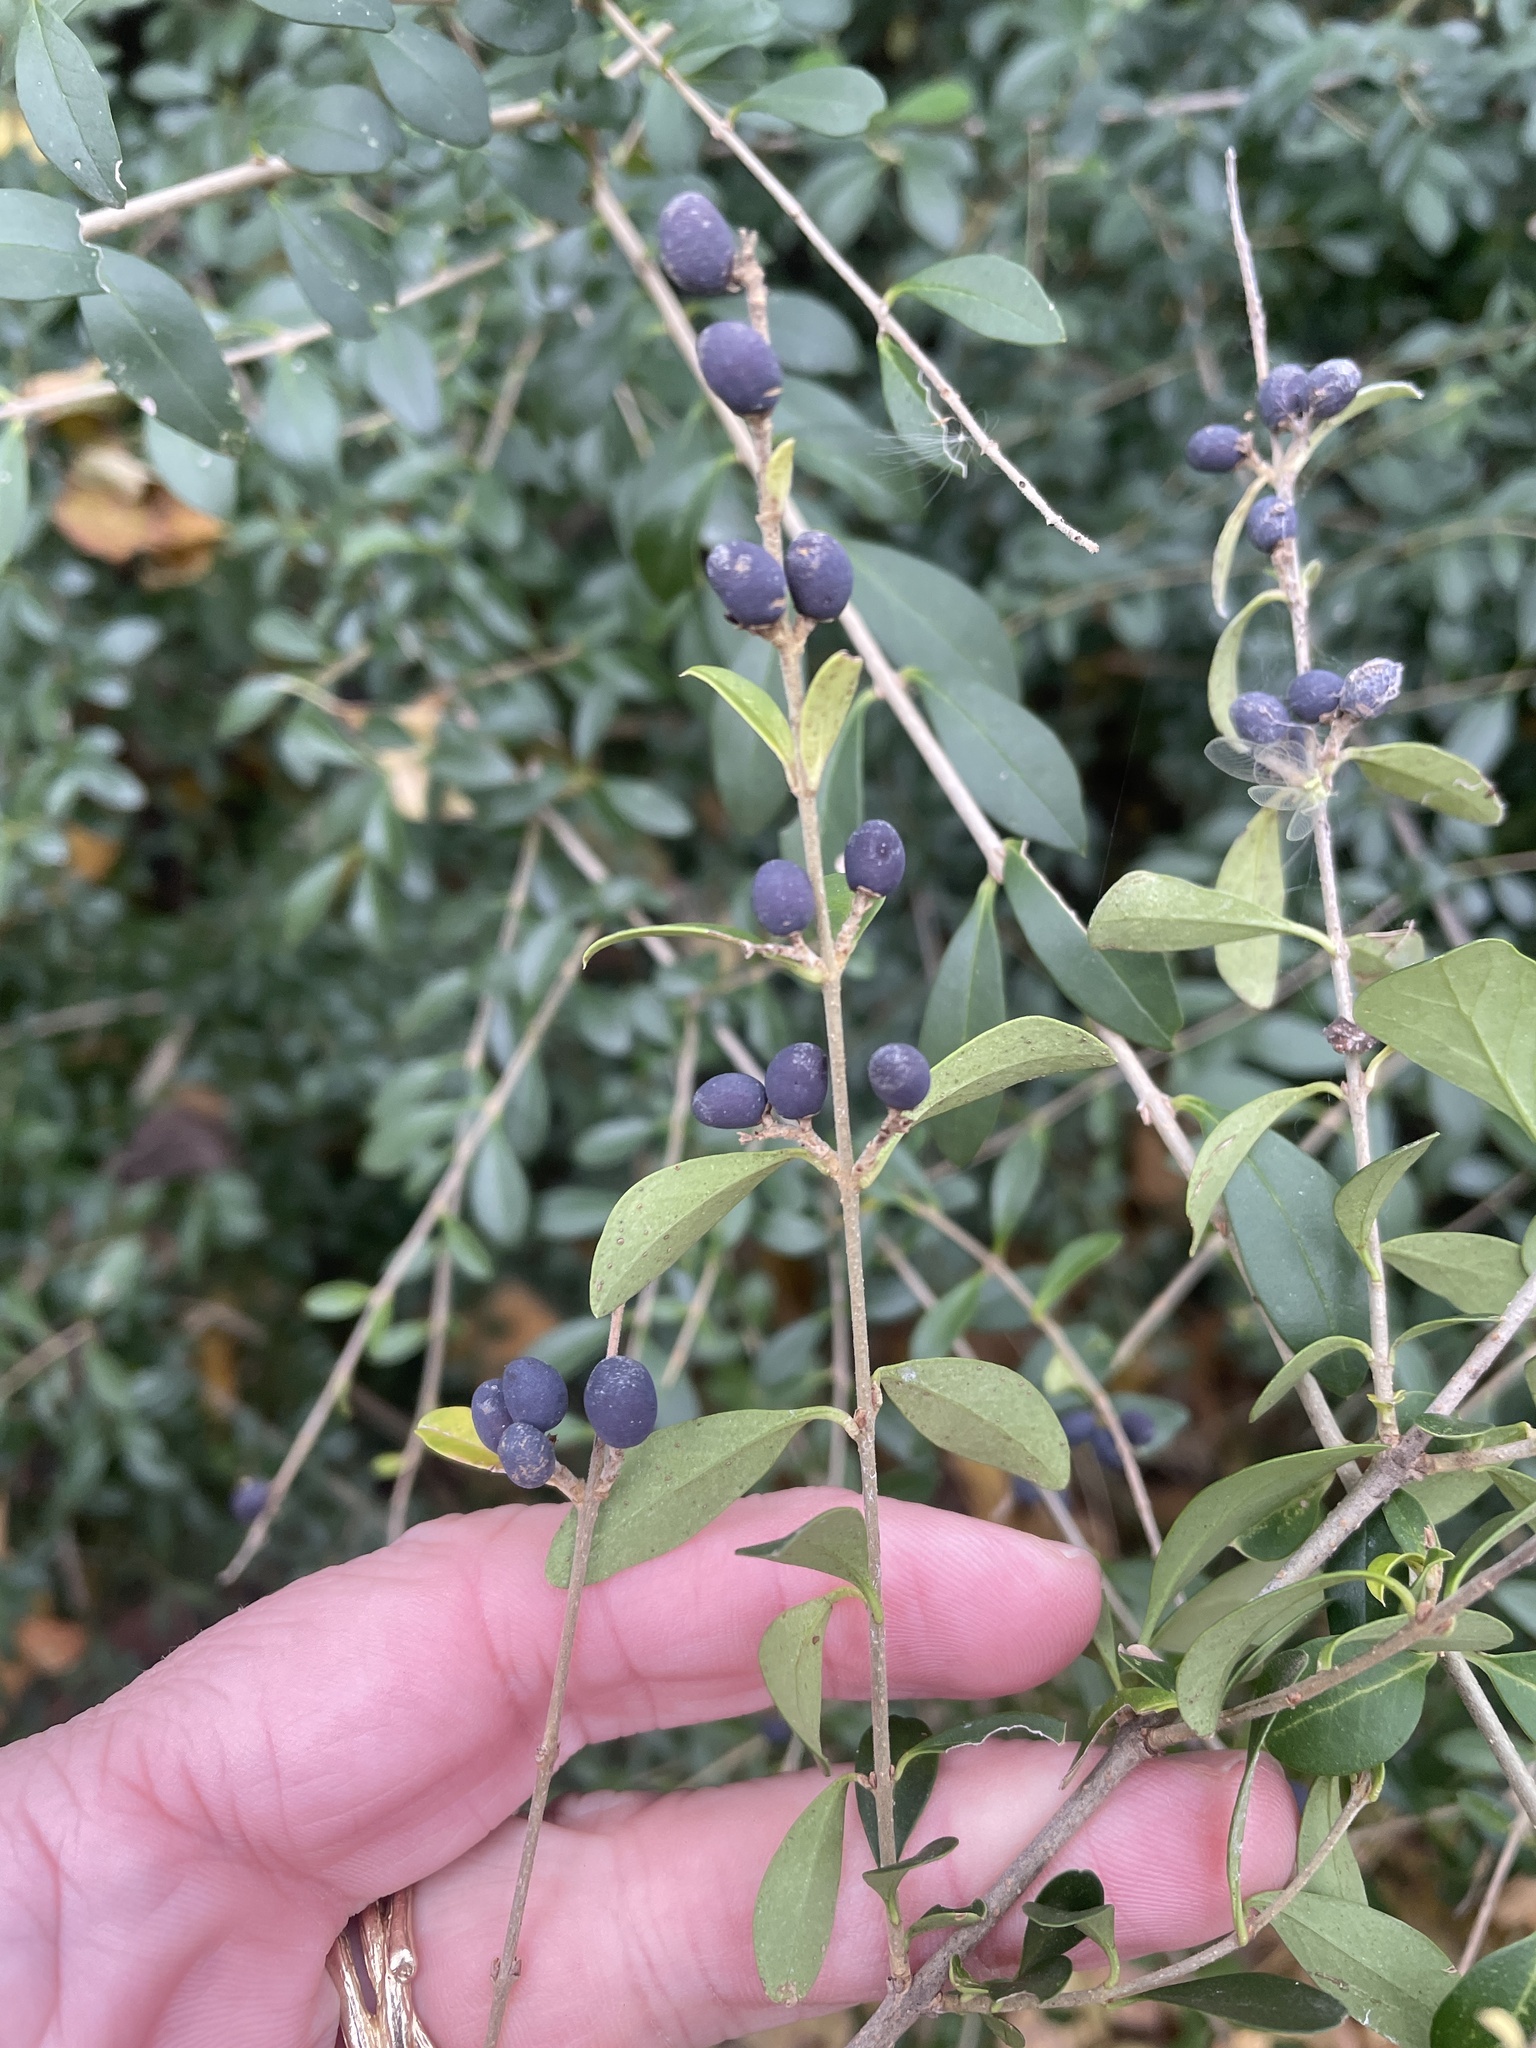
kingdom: Plantae
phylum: Tracheophyta
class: Magnoliopsida
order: Lamiales
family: Oleaceae
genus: Ligustrum
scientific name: Ligustrum quihoui
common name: Waxyleaf privet
